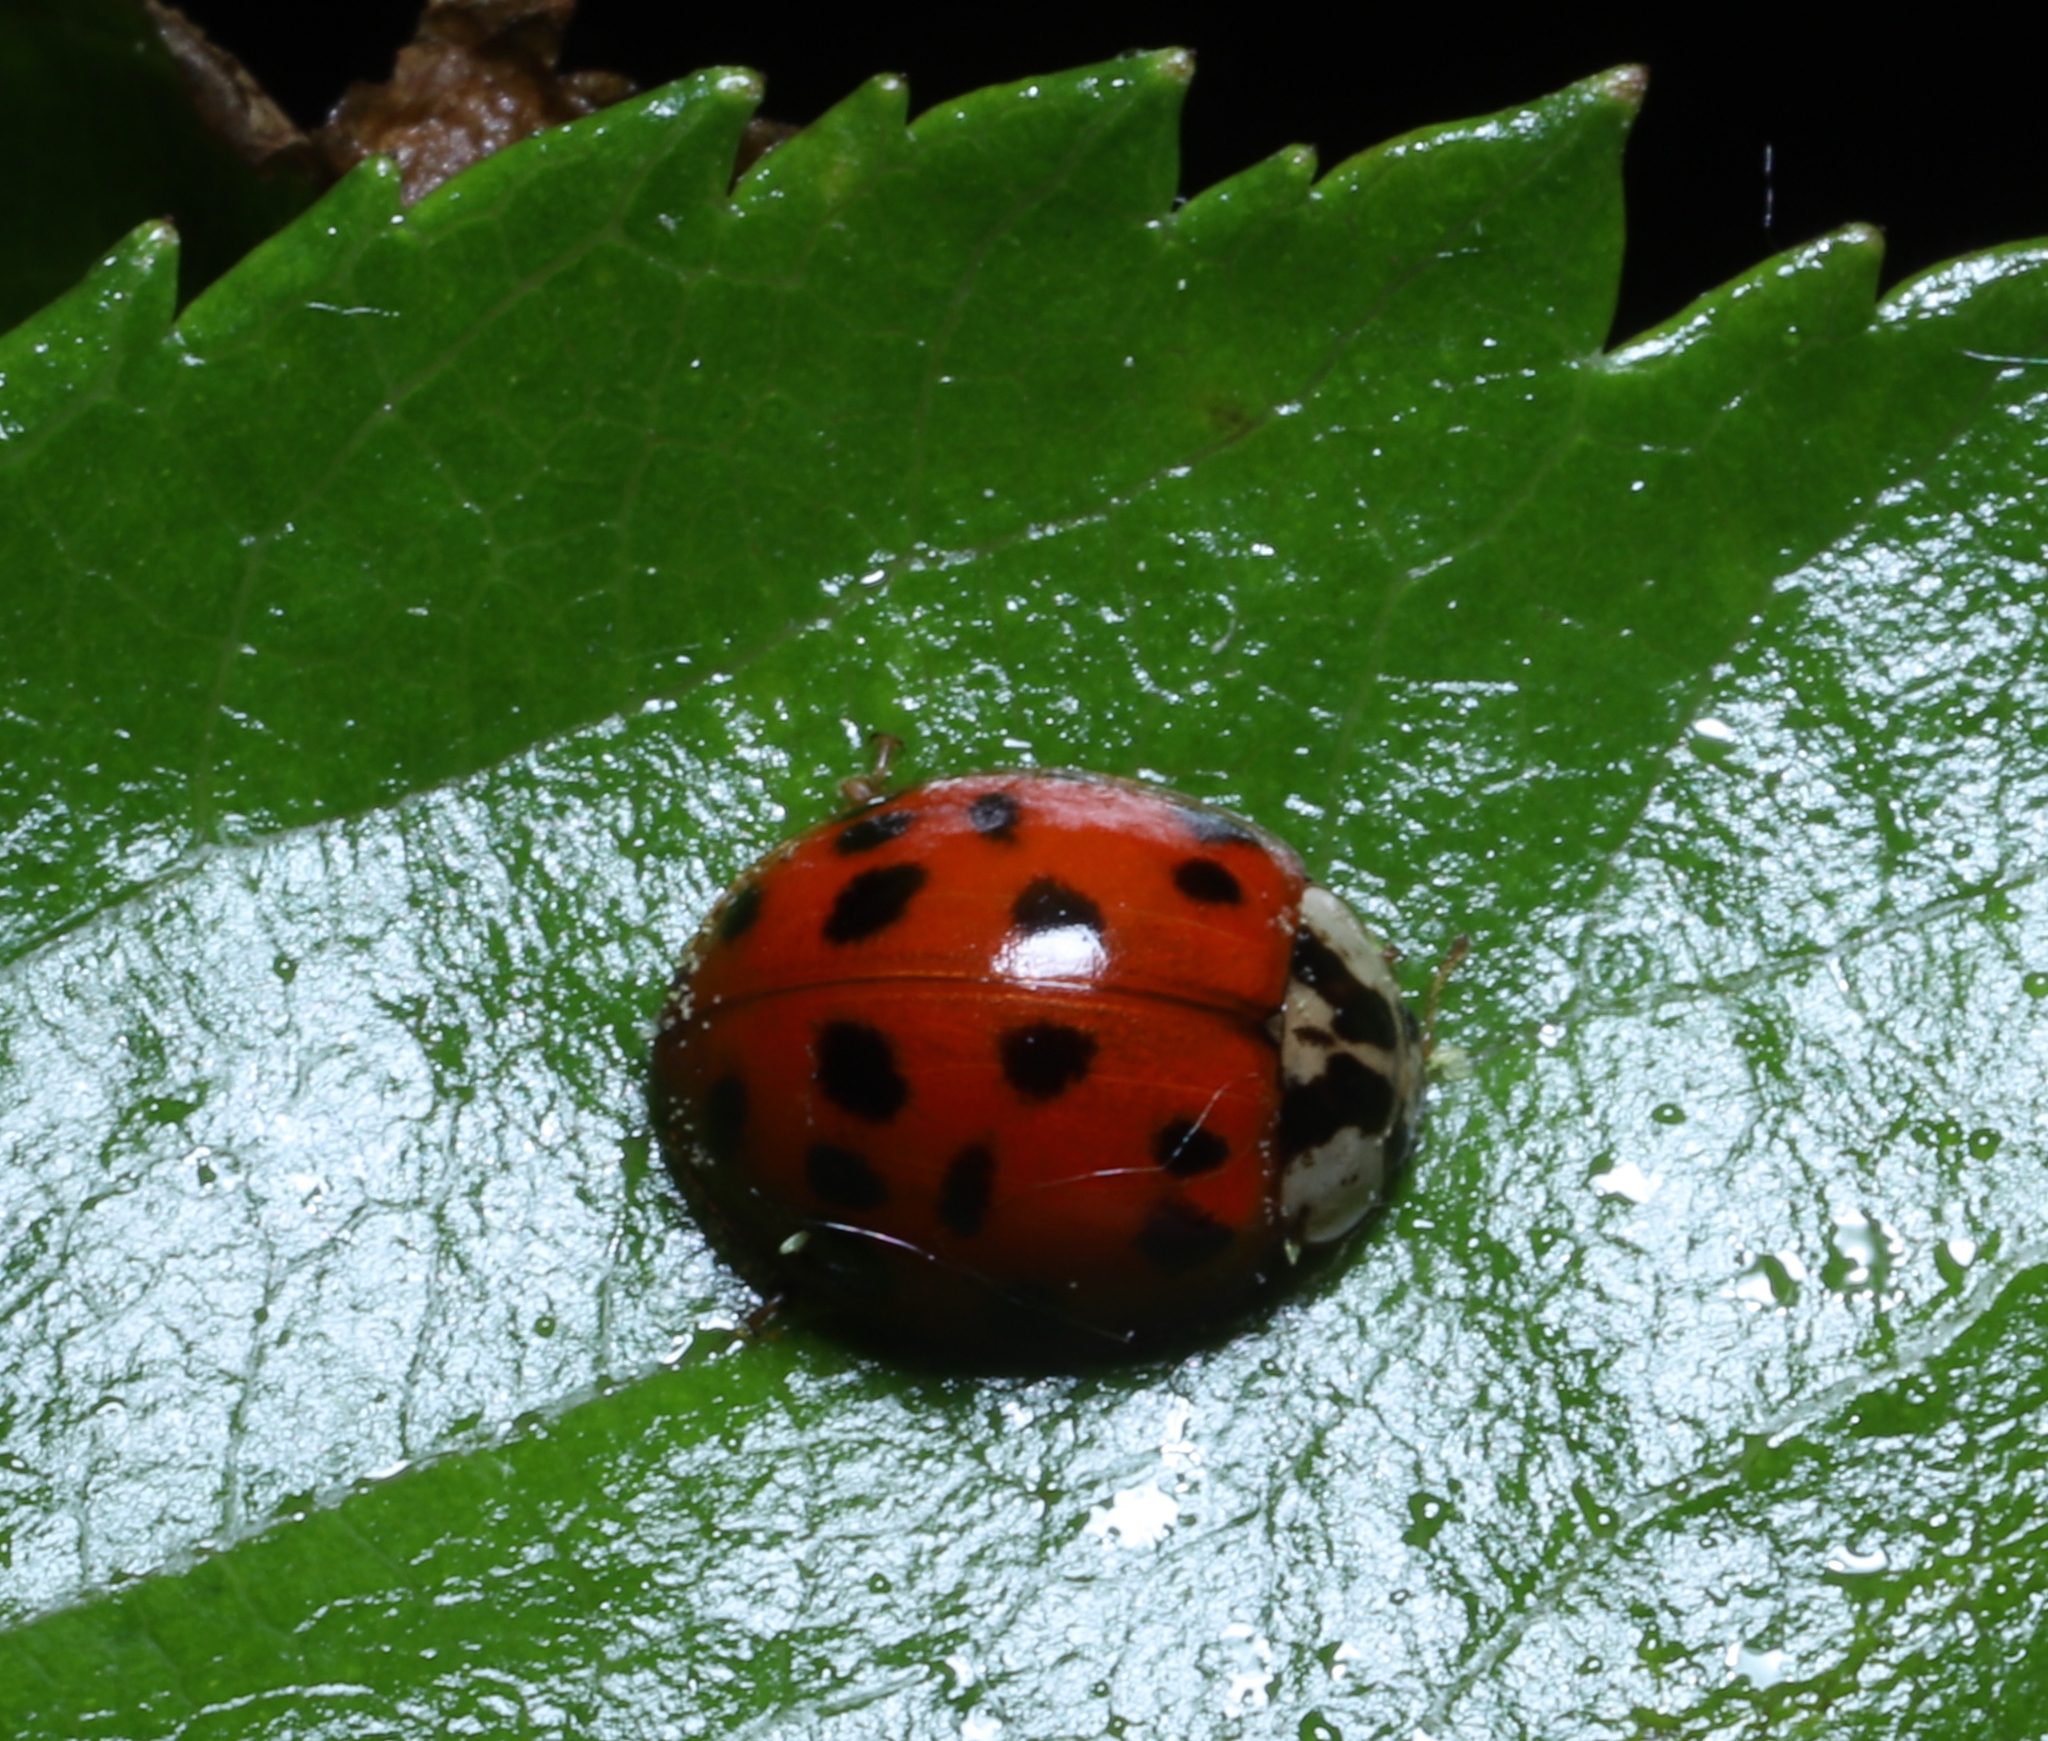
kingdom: Animalia
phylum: Arthropoda
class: Insecta
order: Coleoptera
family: Coccinellidae
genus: Harmonia
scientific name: Harmonia axyridis
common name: Harlequin ladybird
